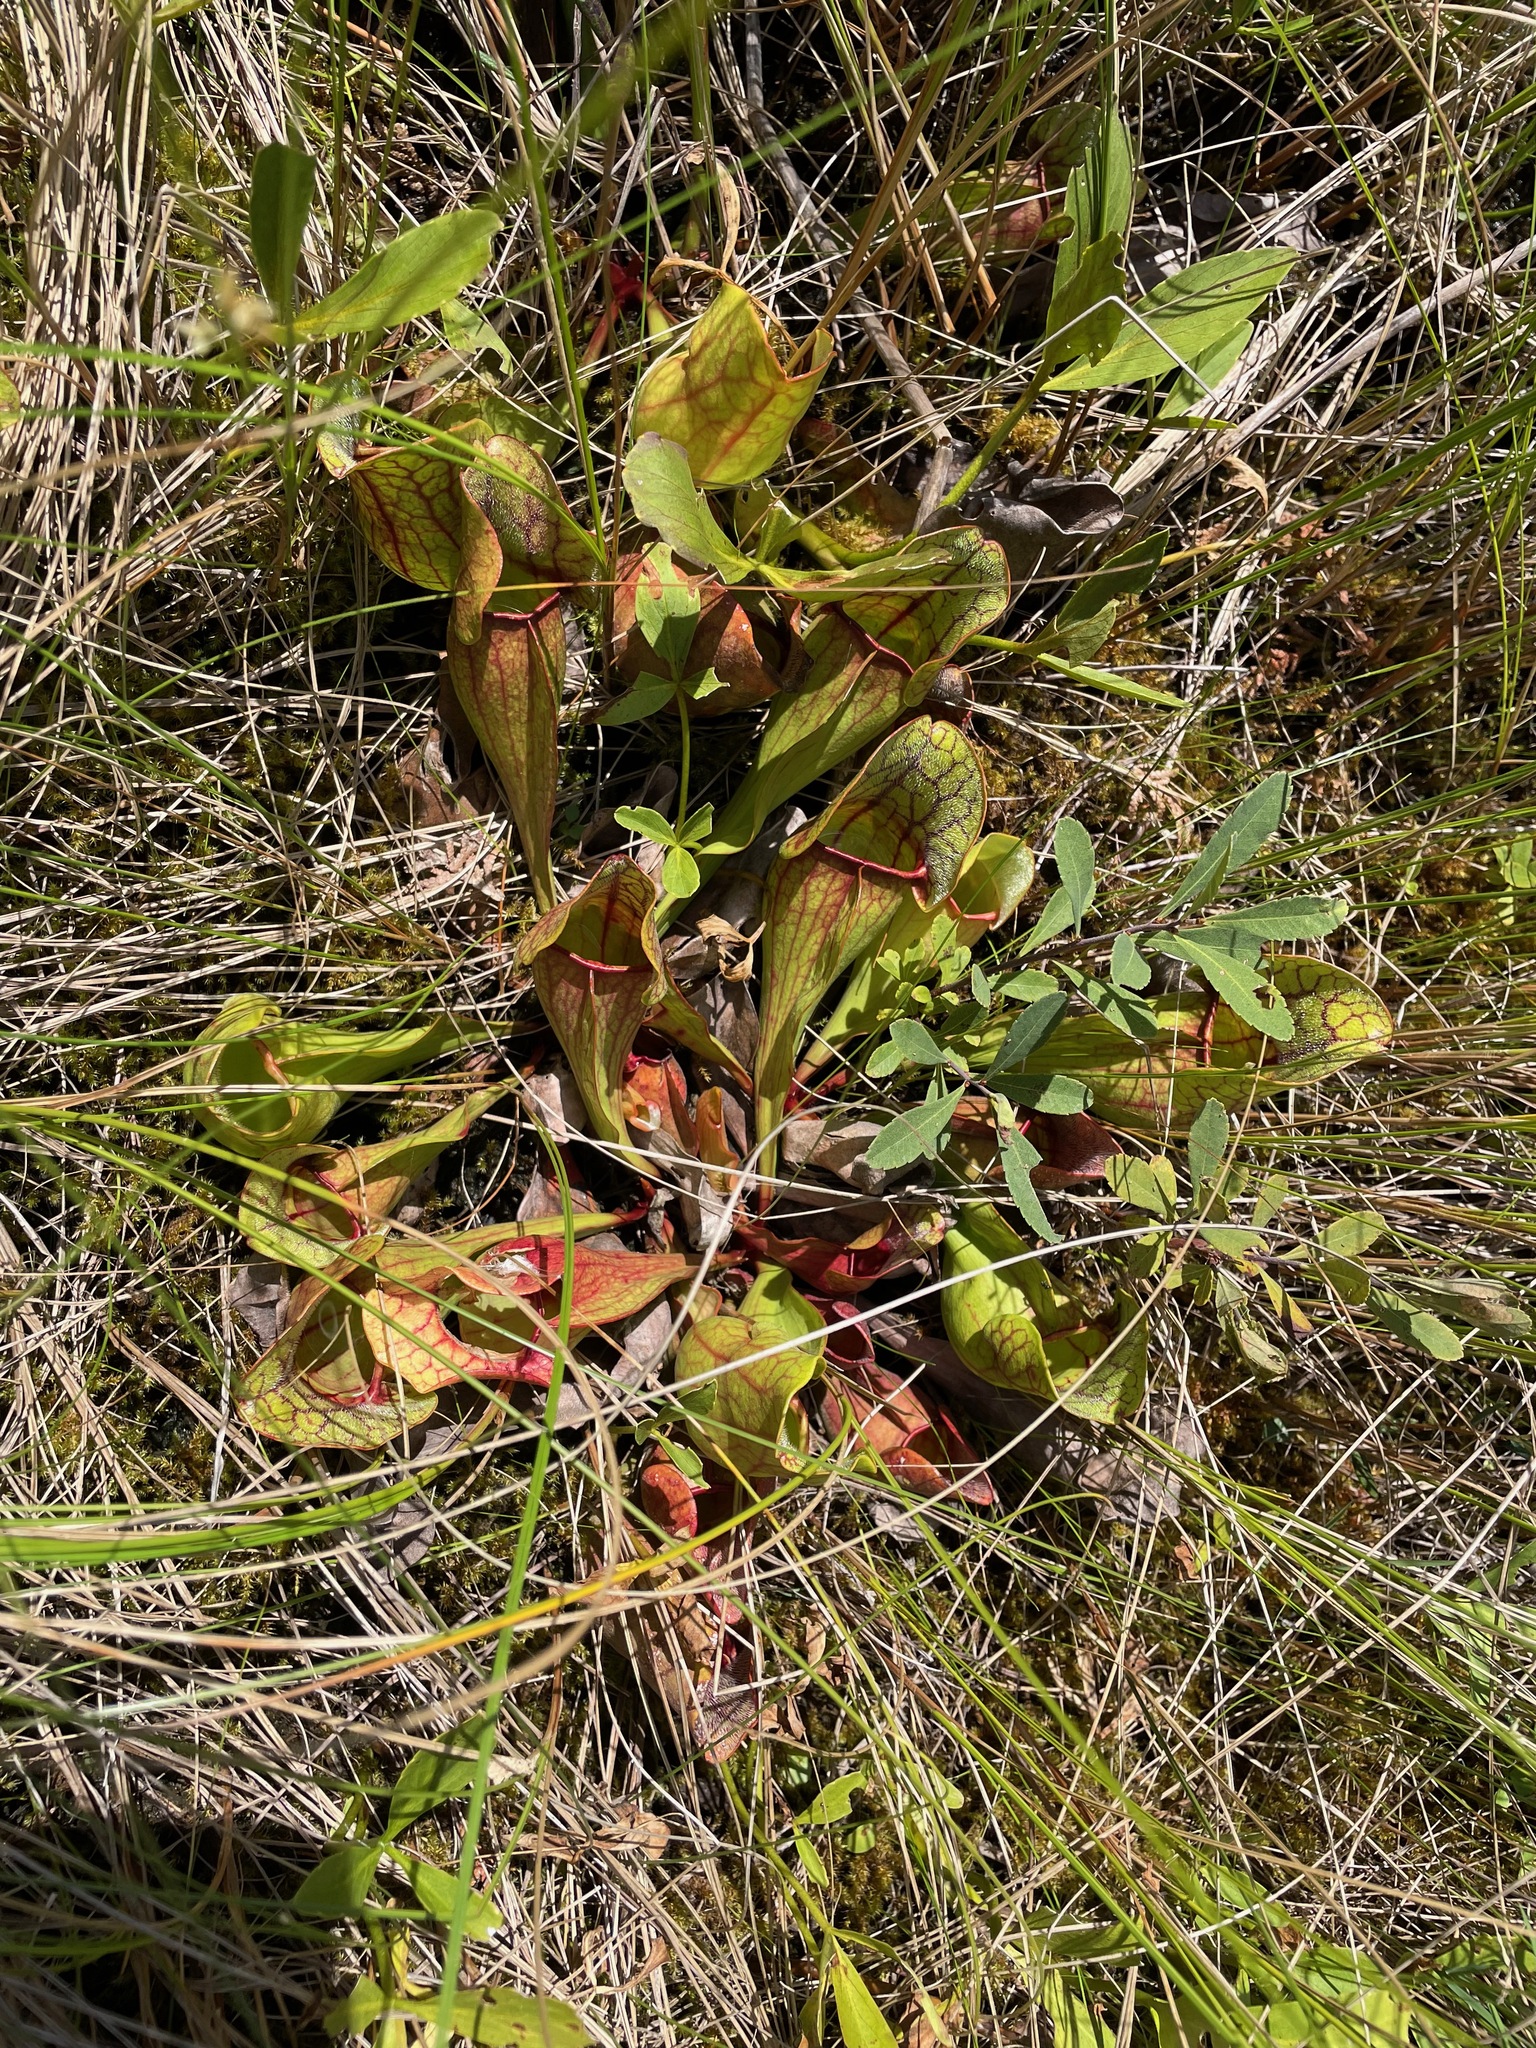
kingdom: Plantae
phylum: Tracheophyta
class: Magnoliopsida
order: Ericales
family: Sarraceniaceae
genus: Sarracenia
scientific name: Sarracenia purpurea
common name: Pitcherplant
